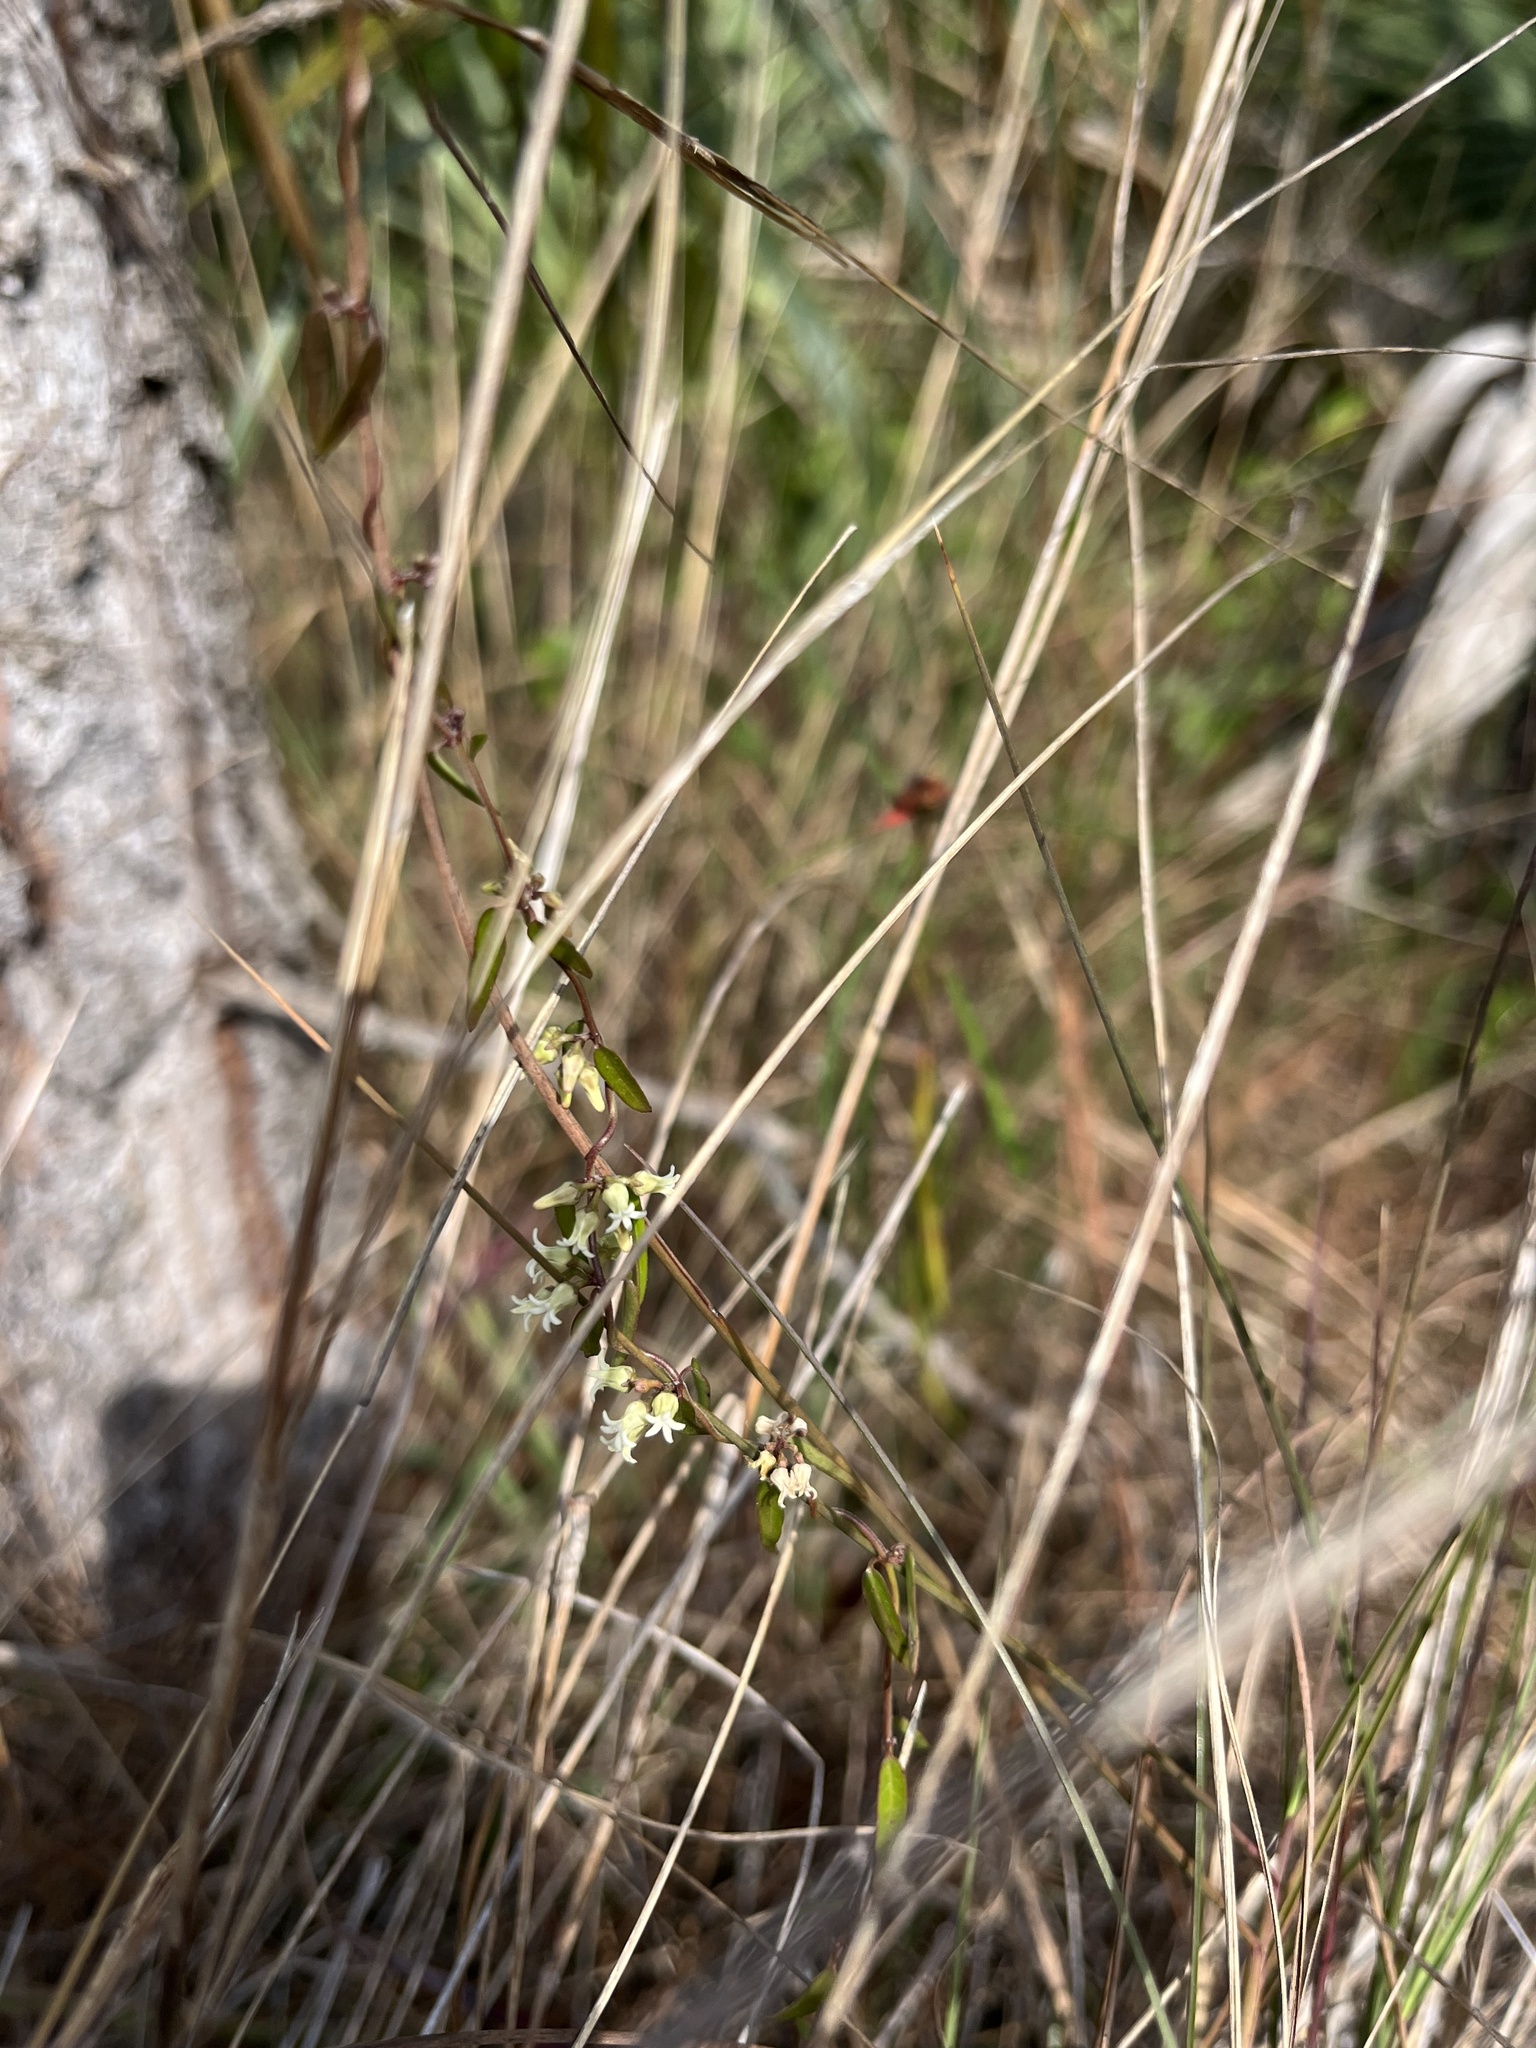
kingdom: Plantae
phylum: Tracheophyta
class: Magnoliopsida
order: Gentianales
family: Apocynaceae
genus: Metastelma
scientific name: Metastelma blodgettii
